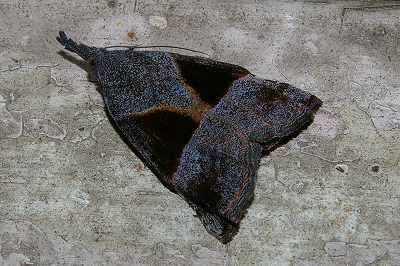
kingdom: Animalia
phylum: Arthropoda
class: Insecta
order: Lepidoptera
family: Erebidae
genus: Hypena
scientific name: Hypena trigonalis
